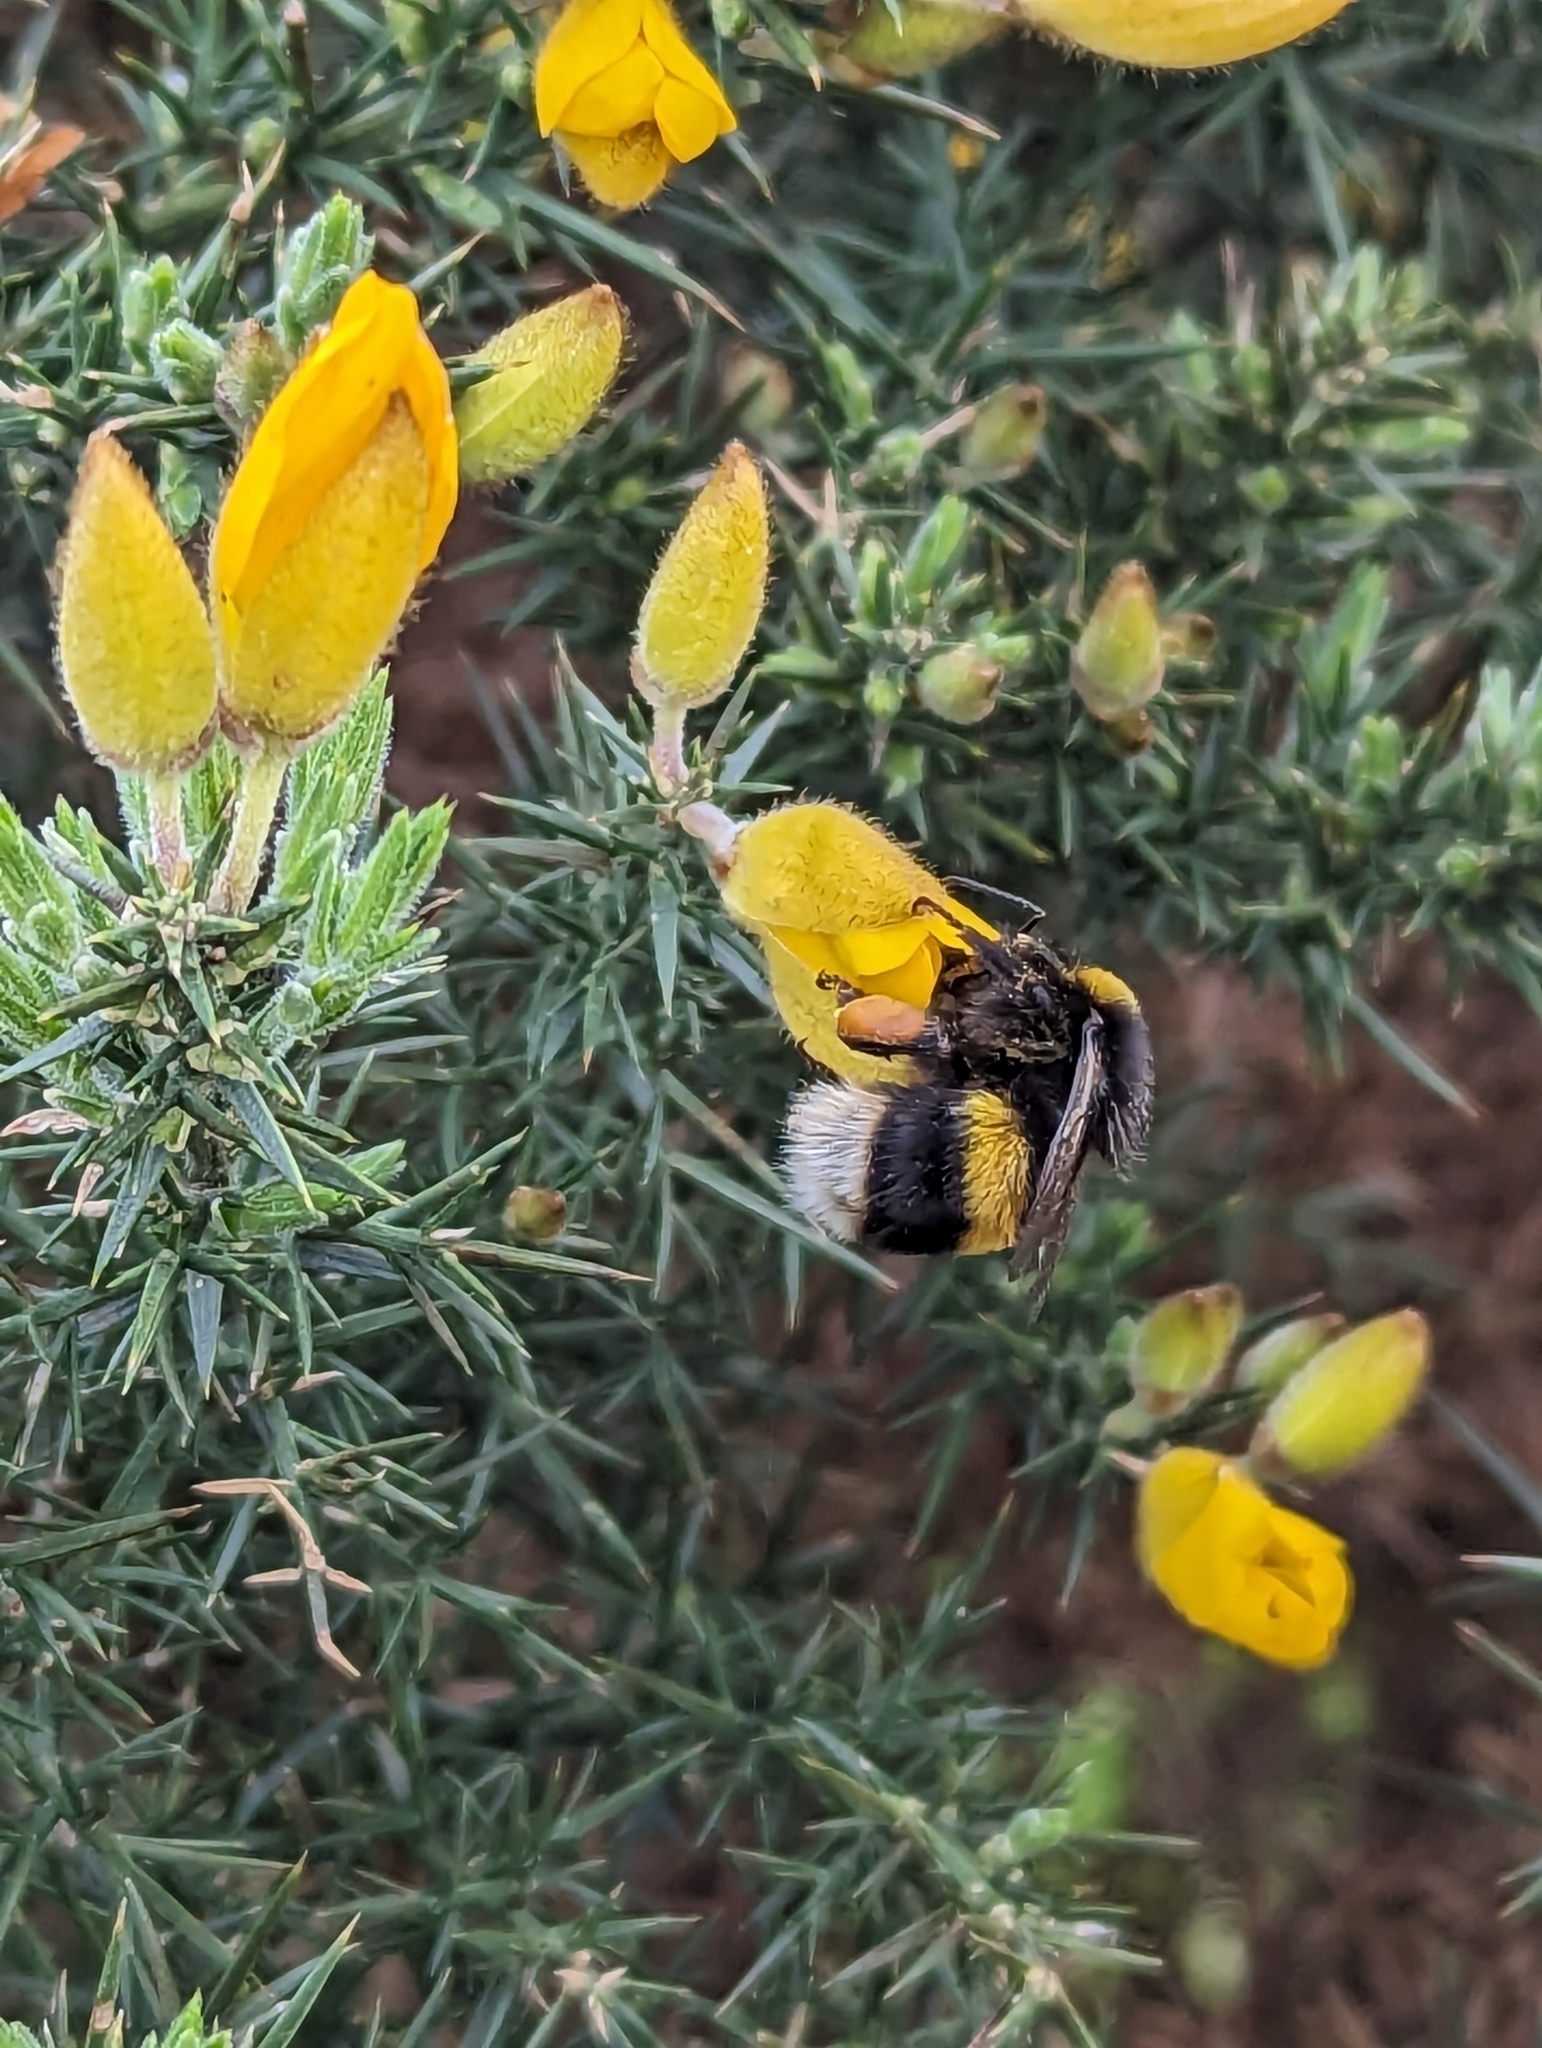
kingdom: Animalia
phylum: Arthropoda
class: Insecta
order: Hymenoptera
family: Apidae
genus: Bombus
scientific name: Bombus terrestris
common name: Buff-tailed bumblebee
